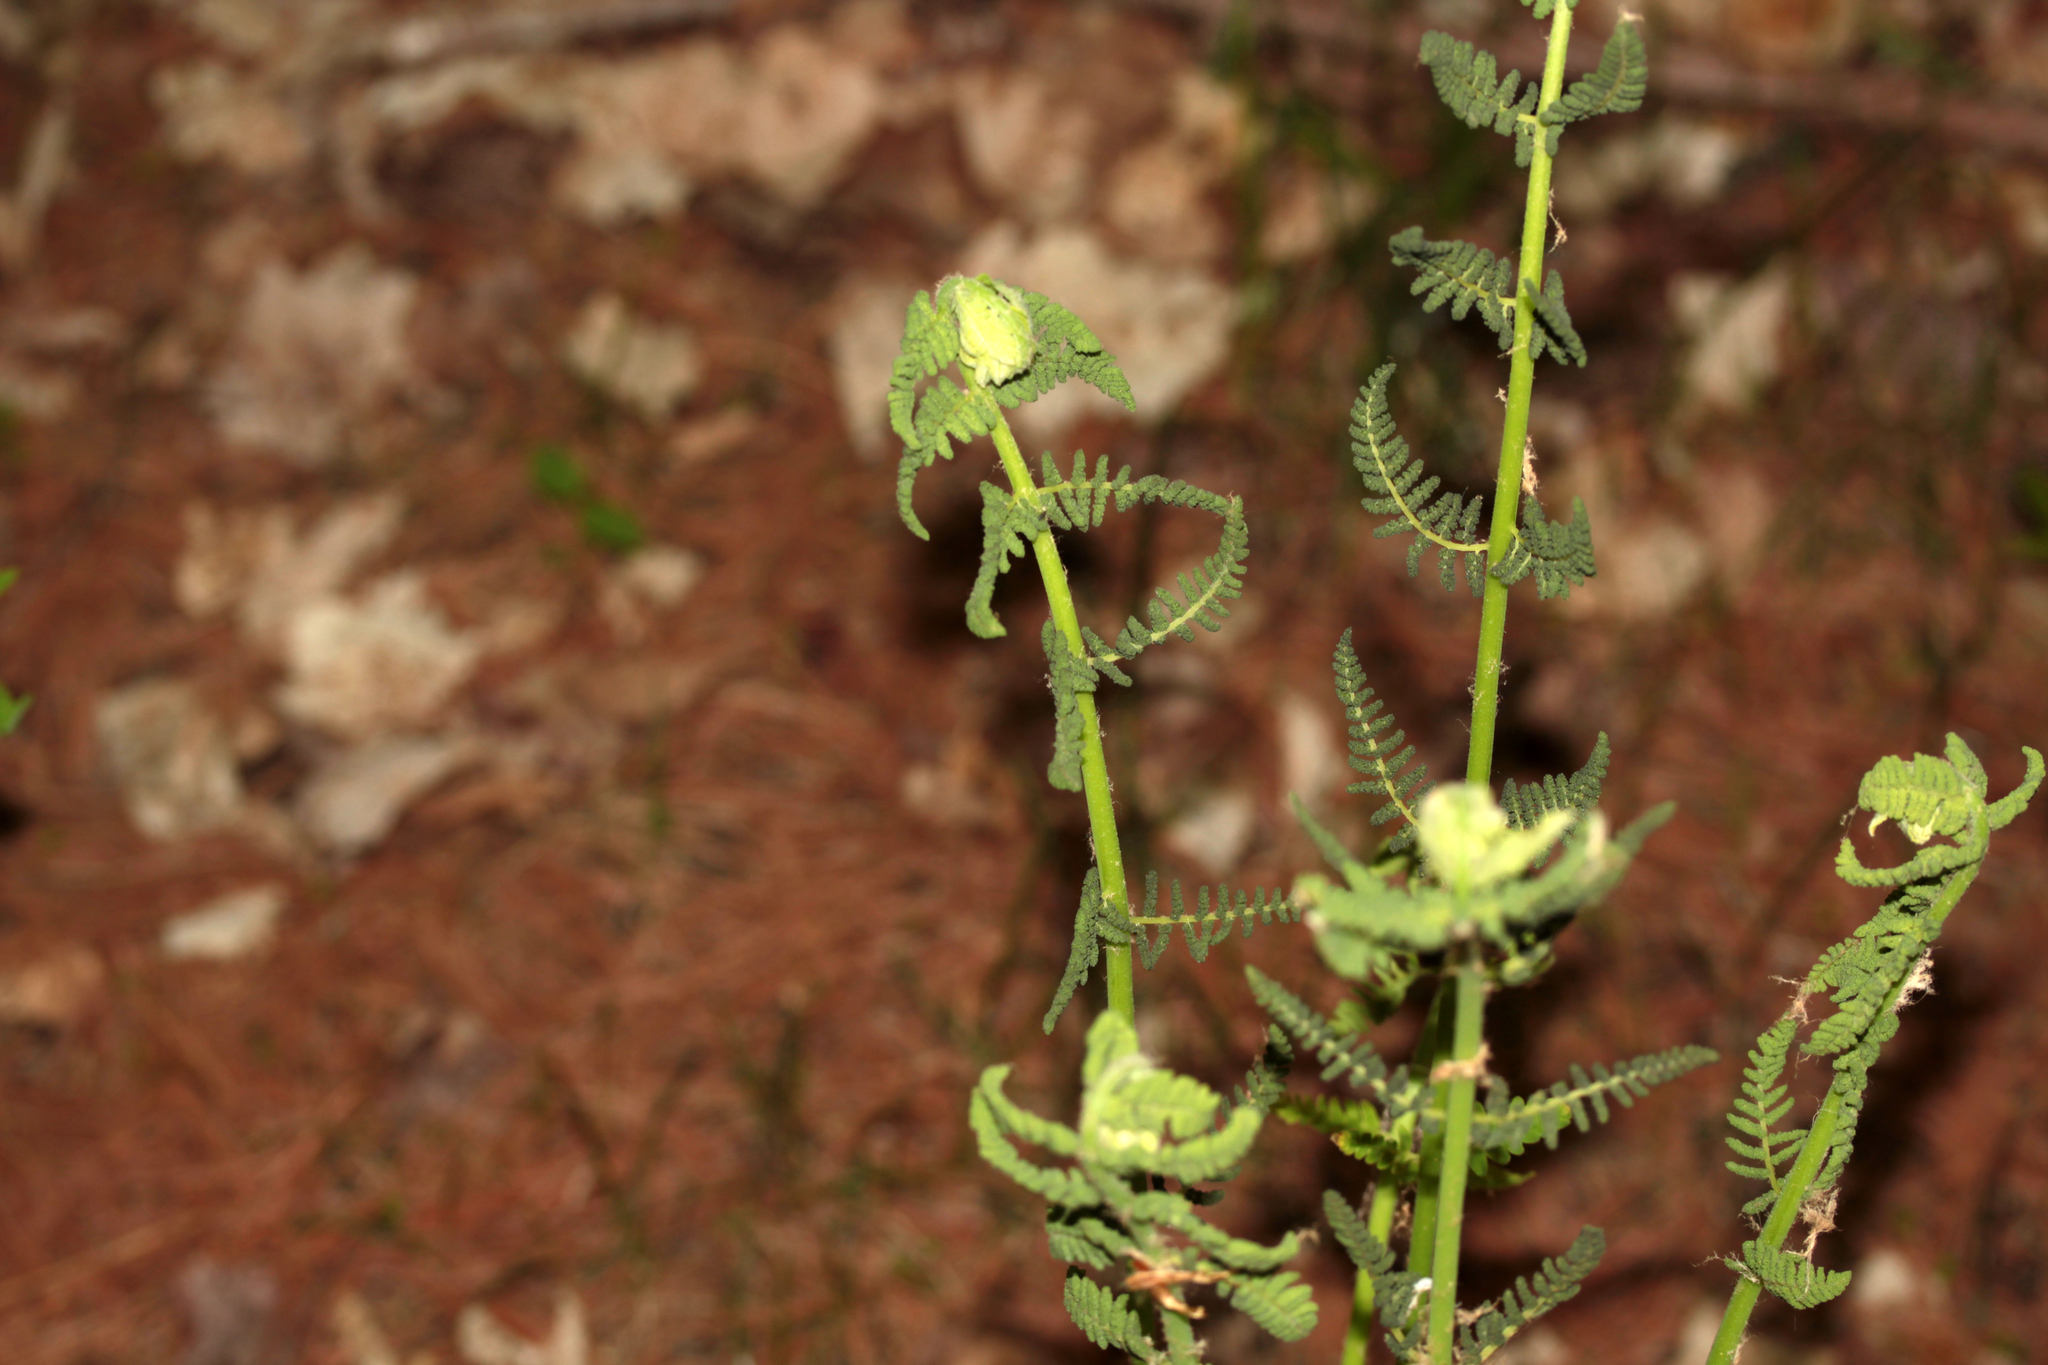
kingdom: Plantae
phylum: Tracheophyta
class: Polypodiopsida
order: Osmundales
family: Osmundaceae
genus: Claytosmunda
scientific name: Claytosmunda claytoniana
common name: Clayton's fern
